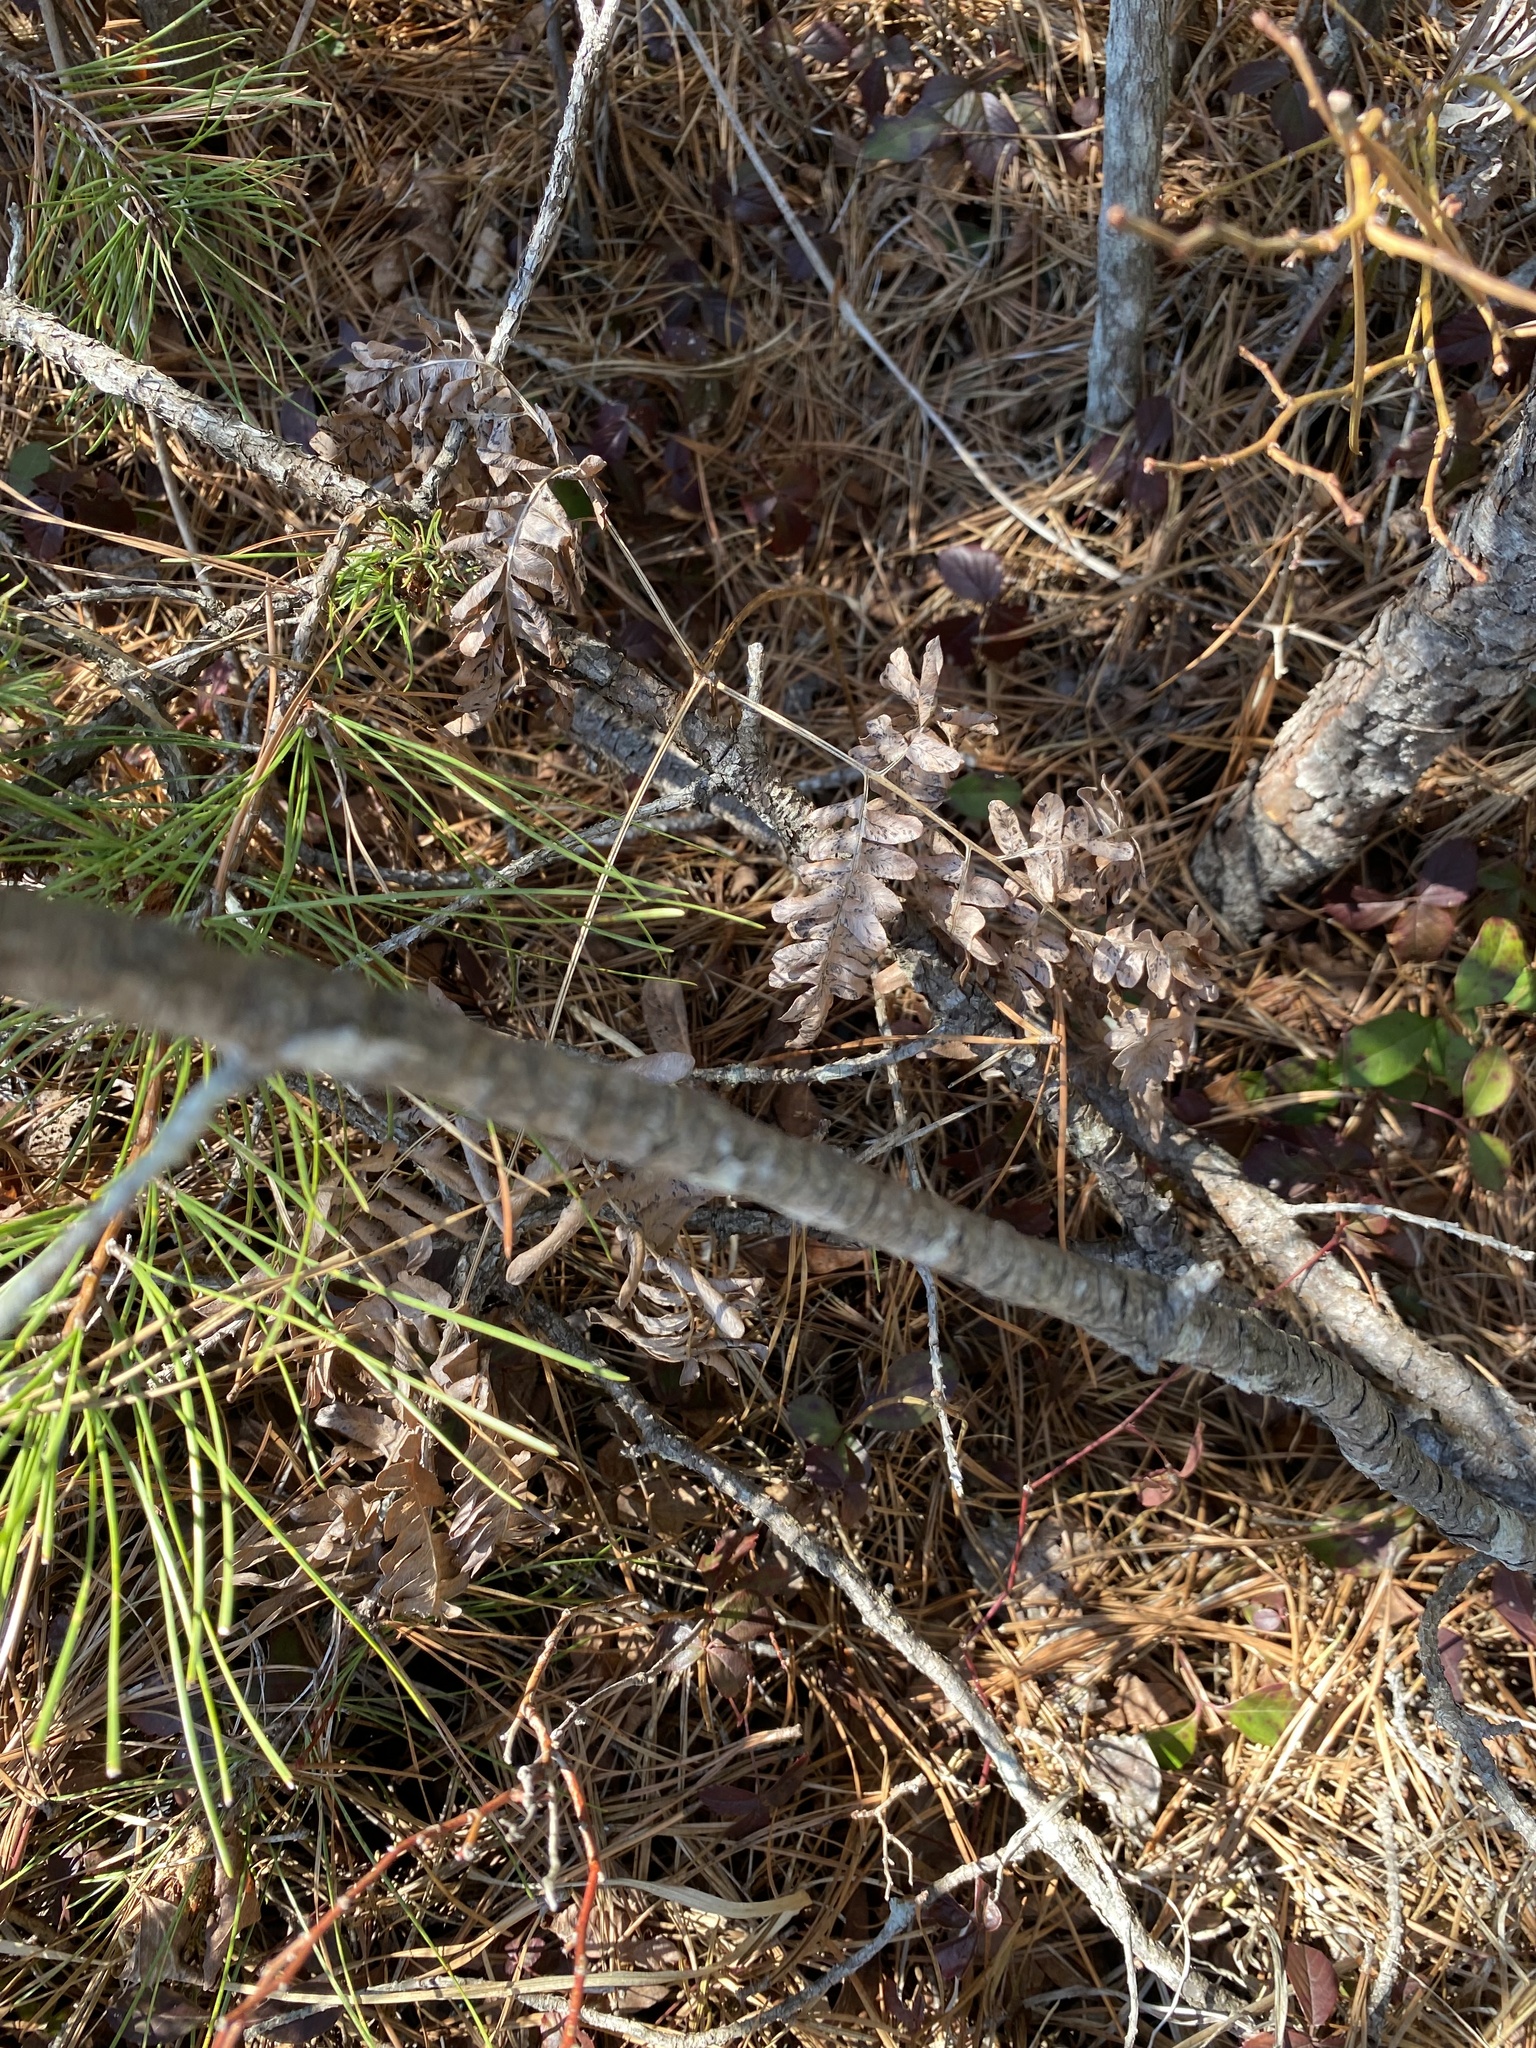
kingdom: Plantae
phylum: Tracheophyta
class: Polypodiopsida
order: Polypodiales
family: Dennstaedtiaceae
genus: Pteridium
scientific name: Pteridium aquilinum
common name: Bracken
